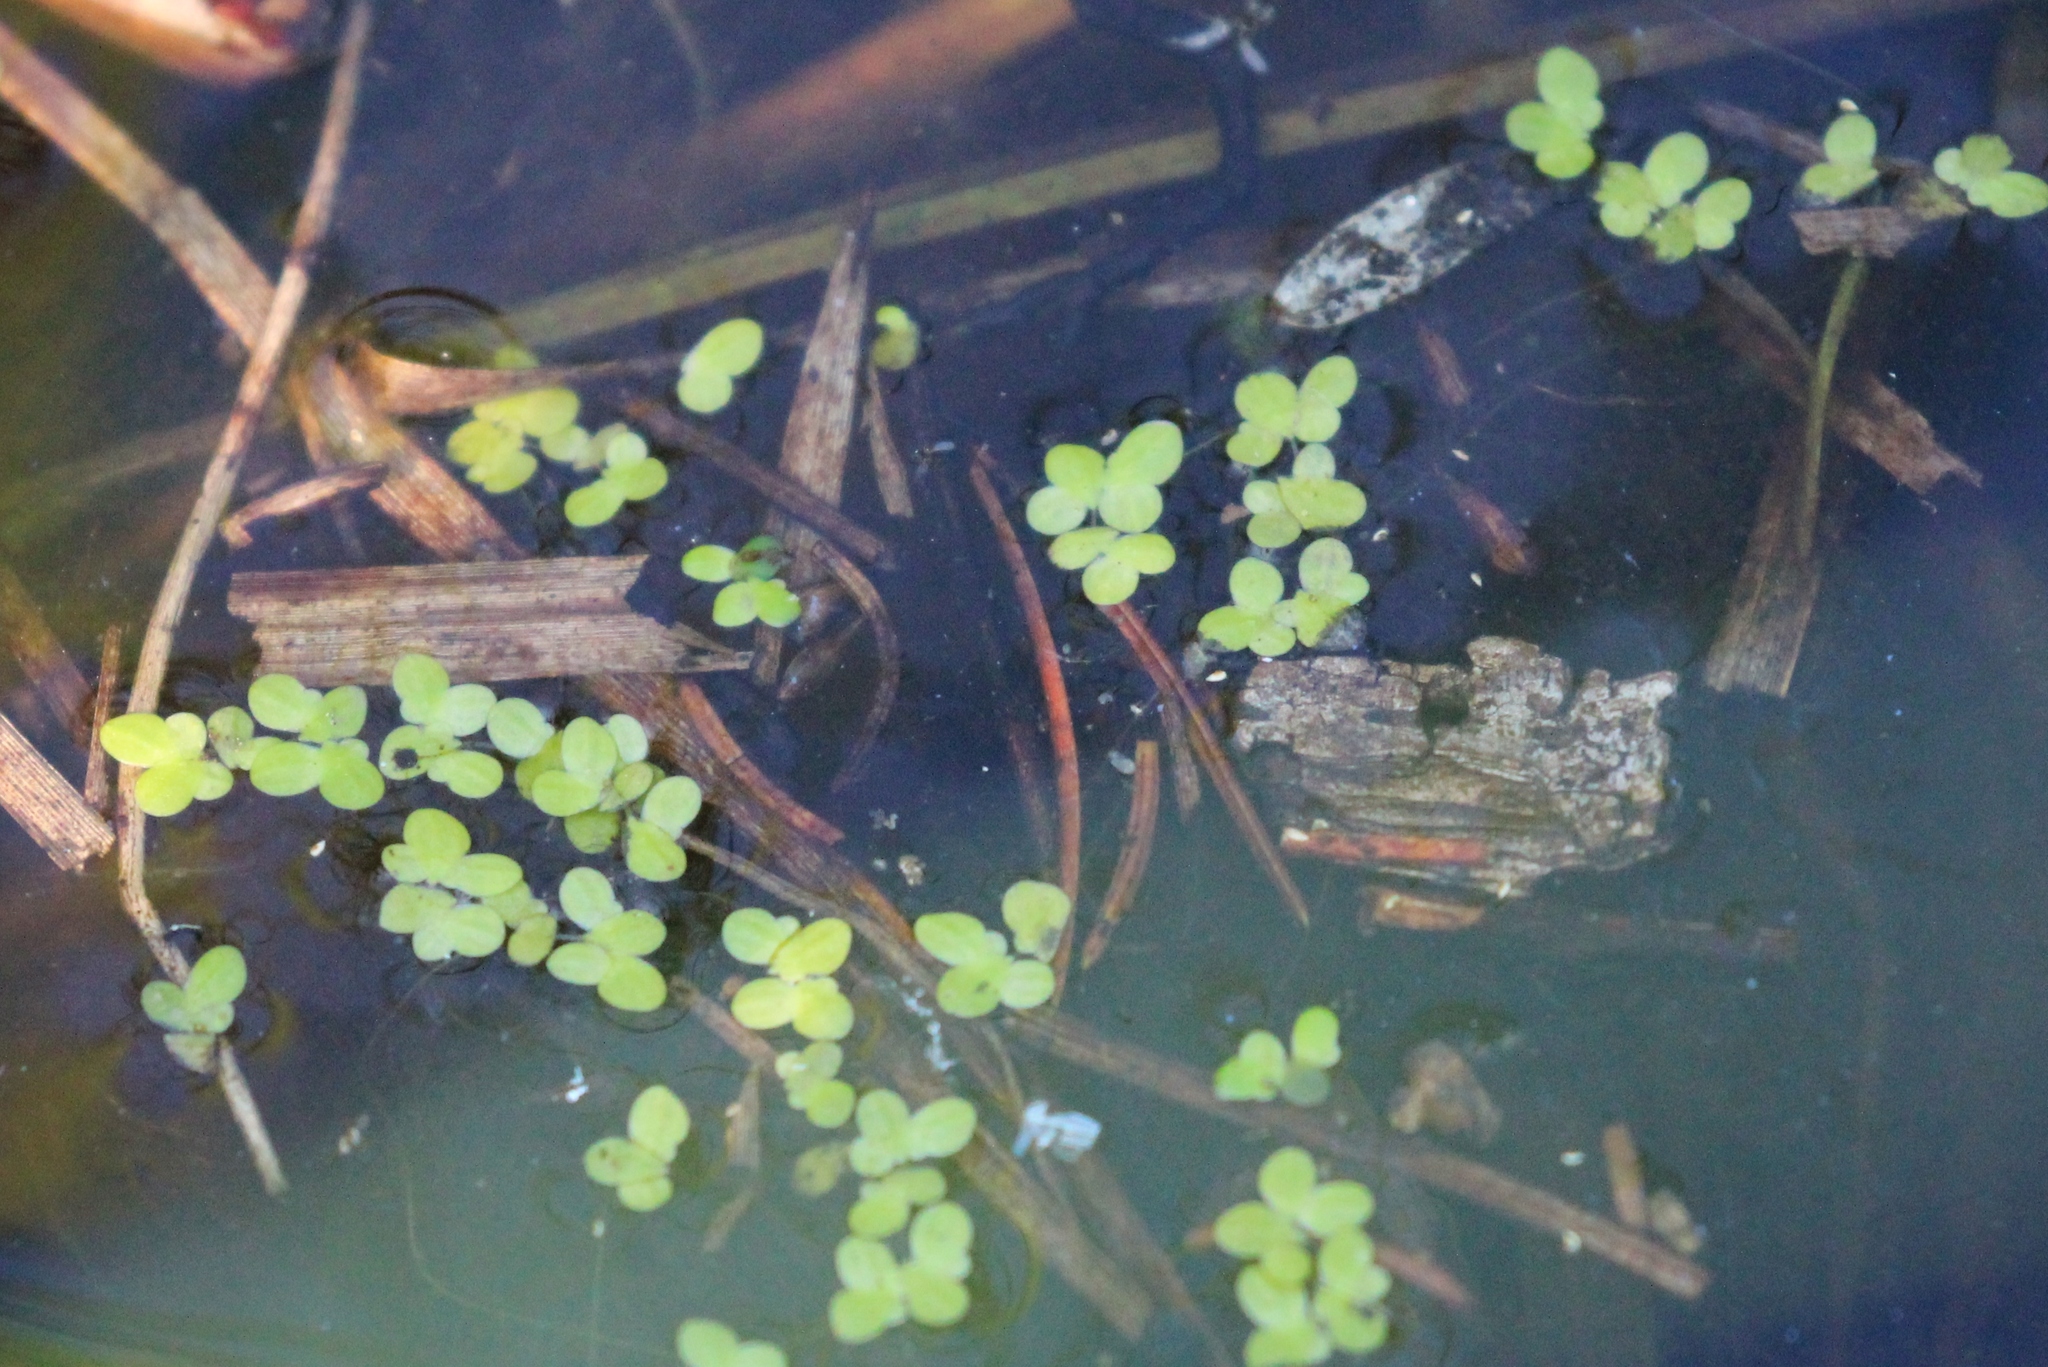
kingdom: Plantae
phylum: Tracheophyta
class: Liliopsida
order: Alismatales
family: Araceae
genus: Lemna
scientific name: Lemna minor
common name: Common duckweed
